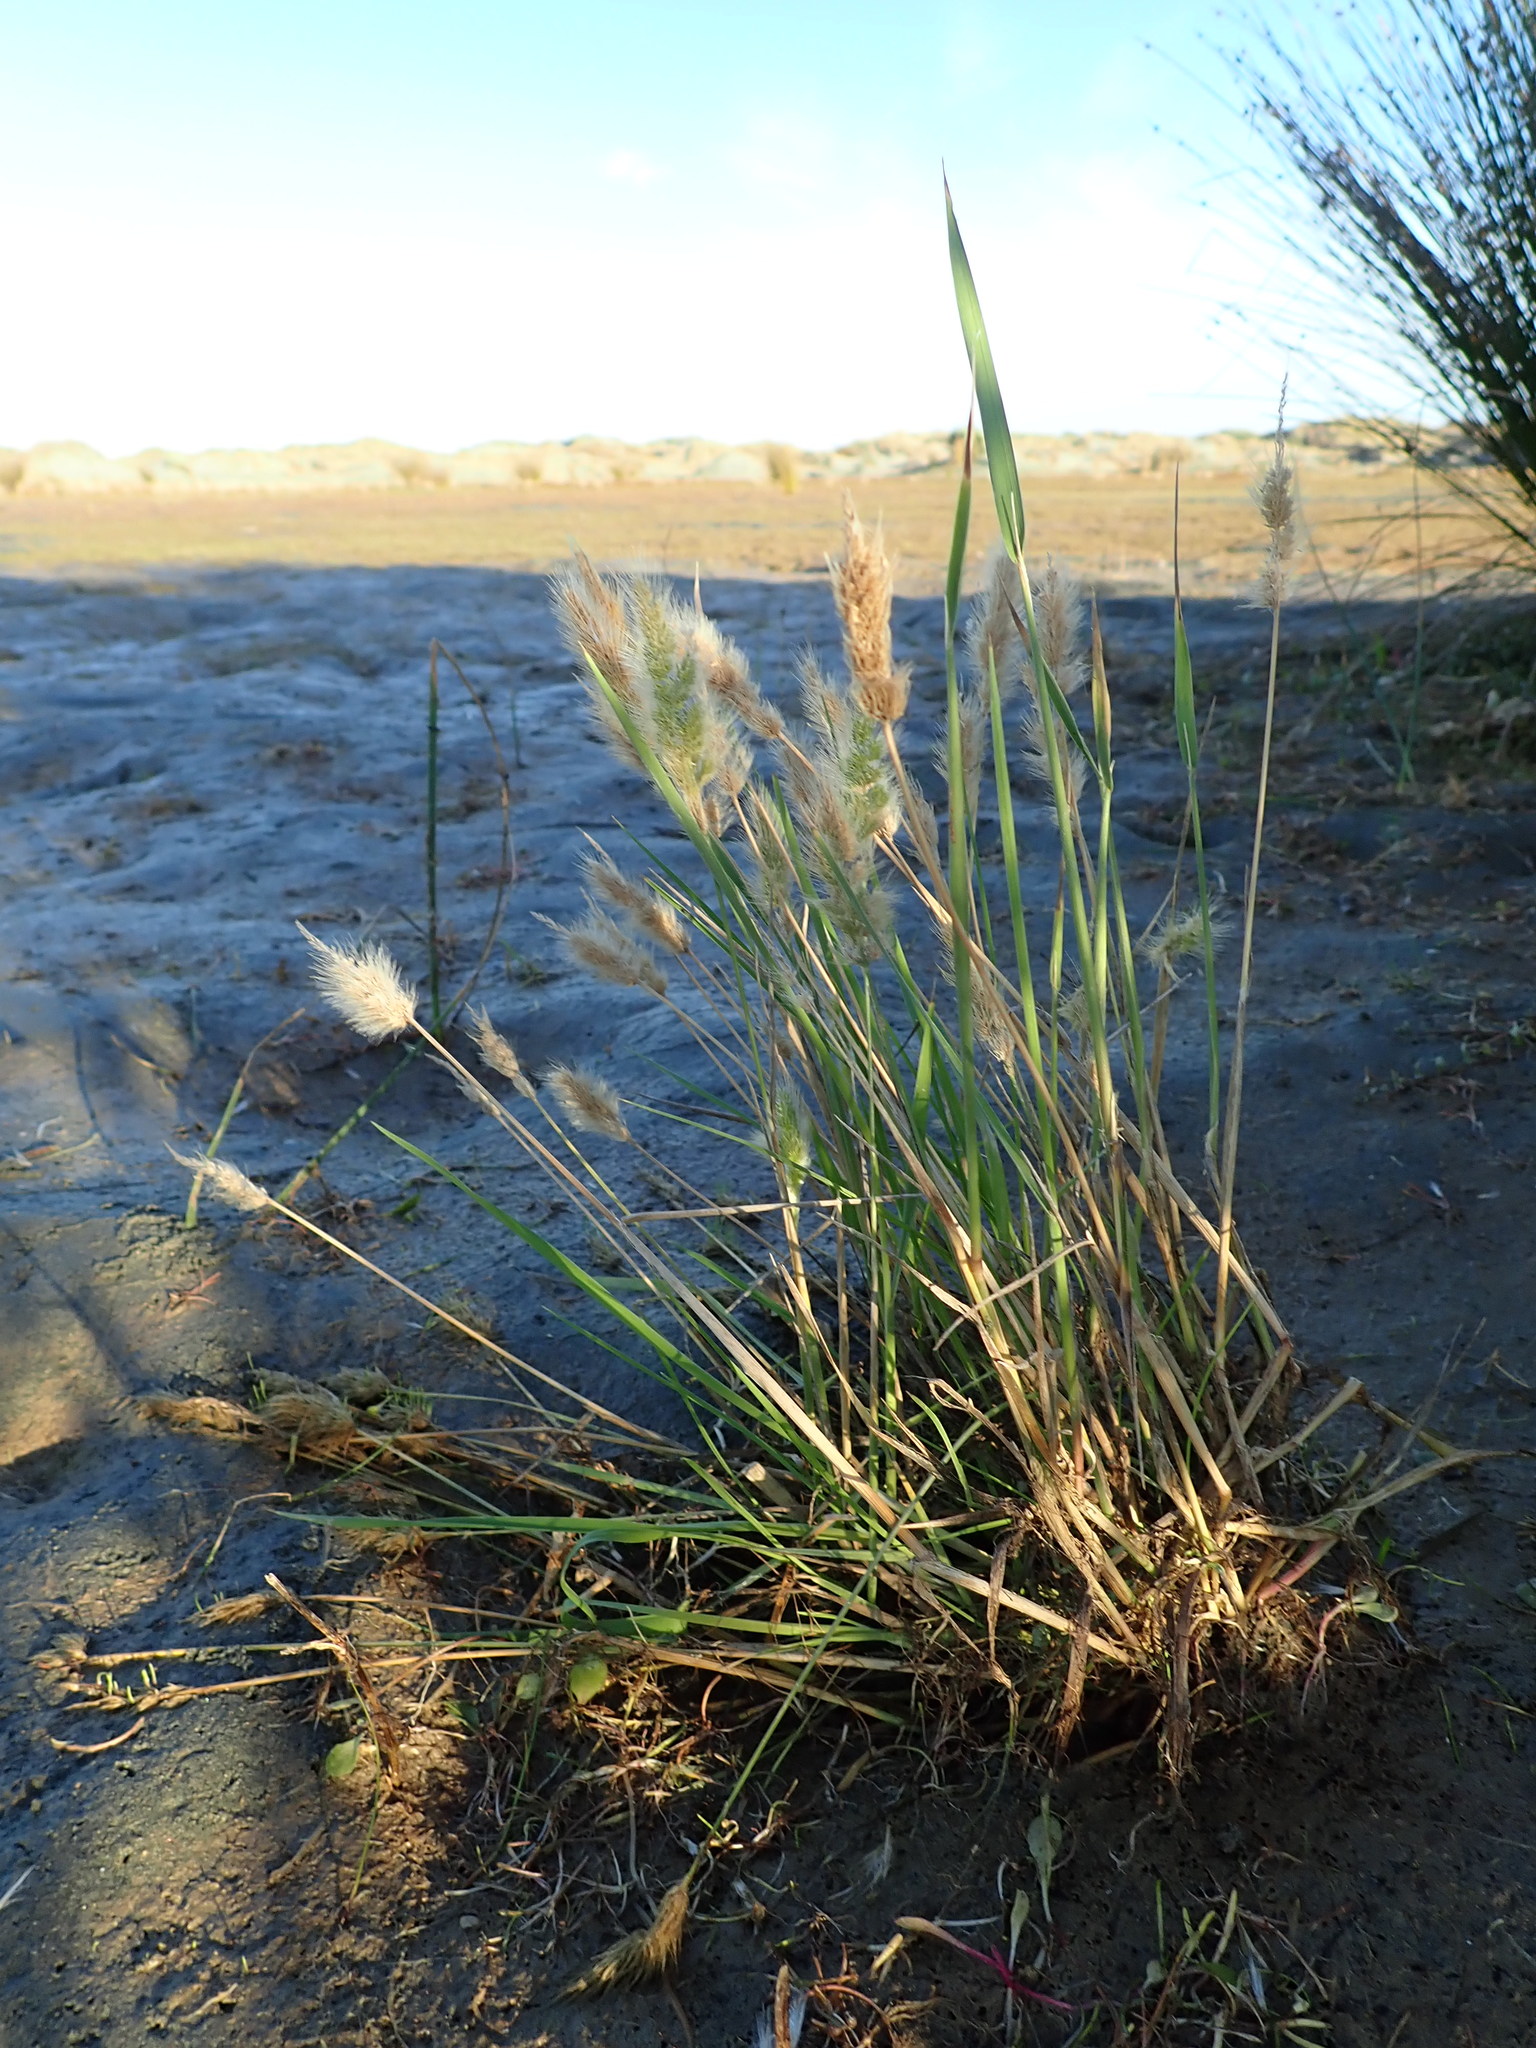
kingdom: Plantae
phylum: Tracheophyta
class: Liliopsida
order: Poales
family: Poaceae
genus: Polypogon
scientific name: Polypogon monspeliensis
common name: Annual rabbitsfoot grass
